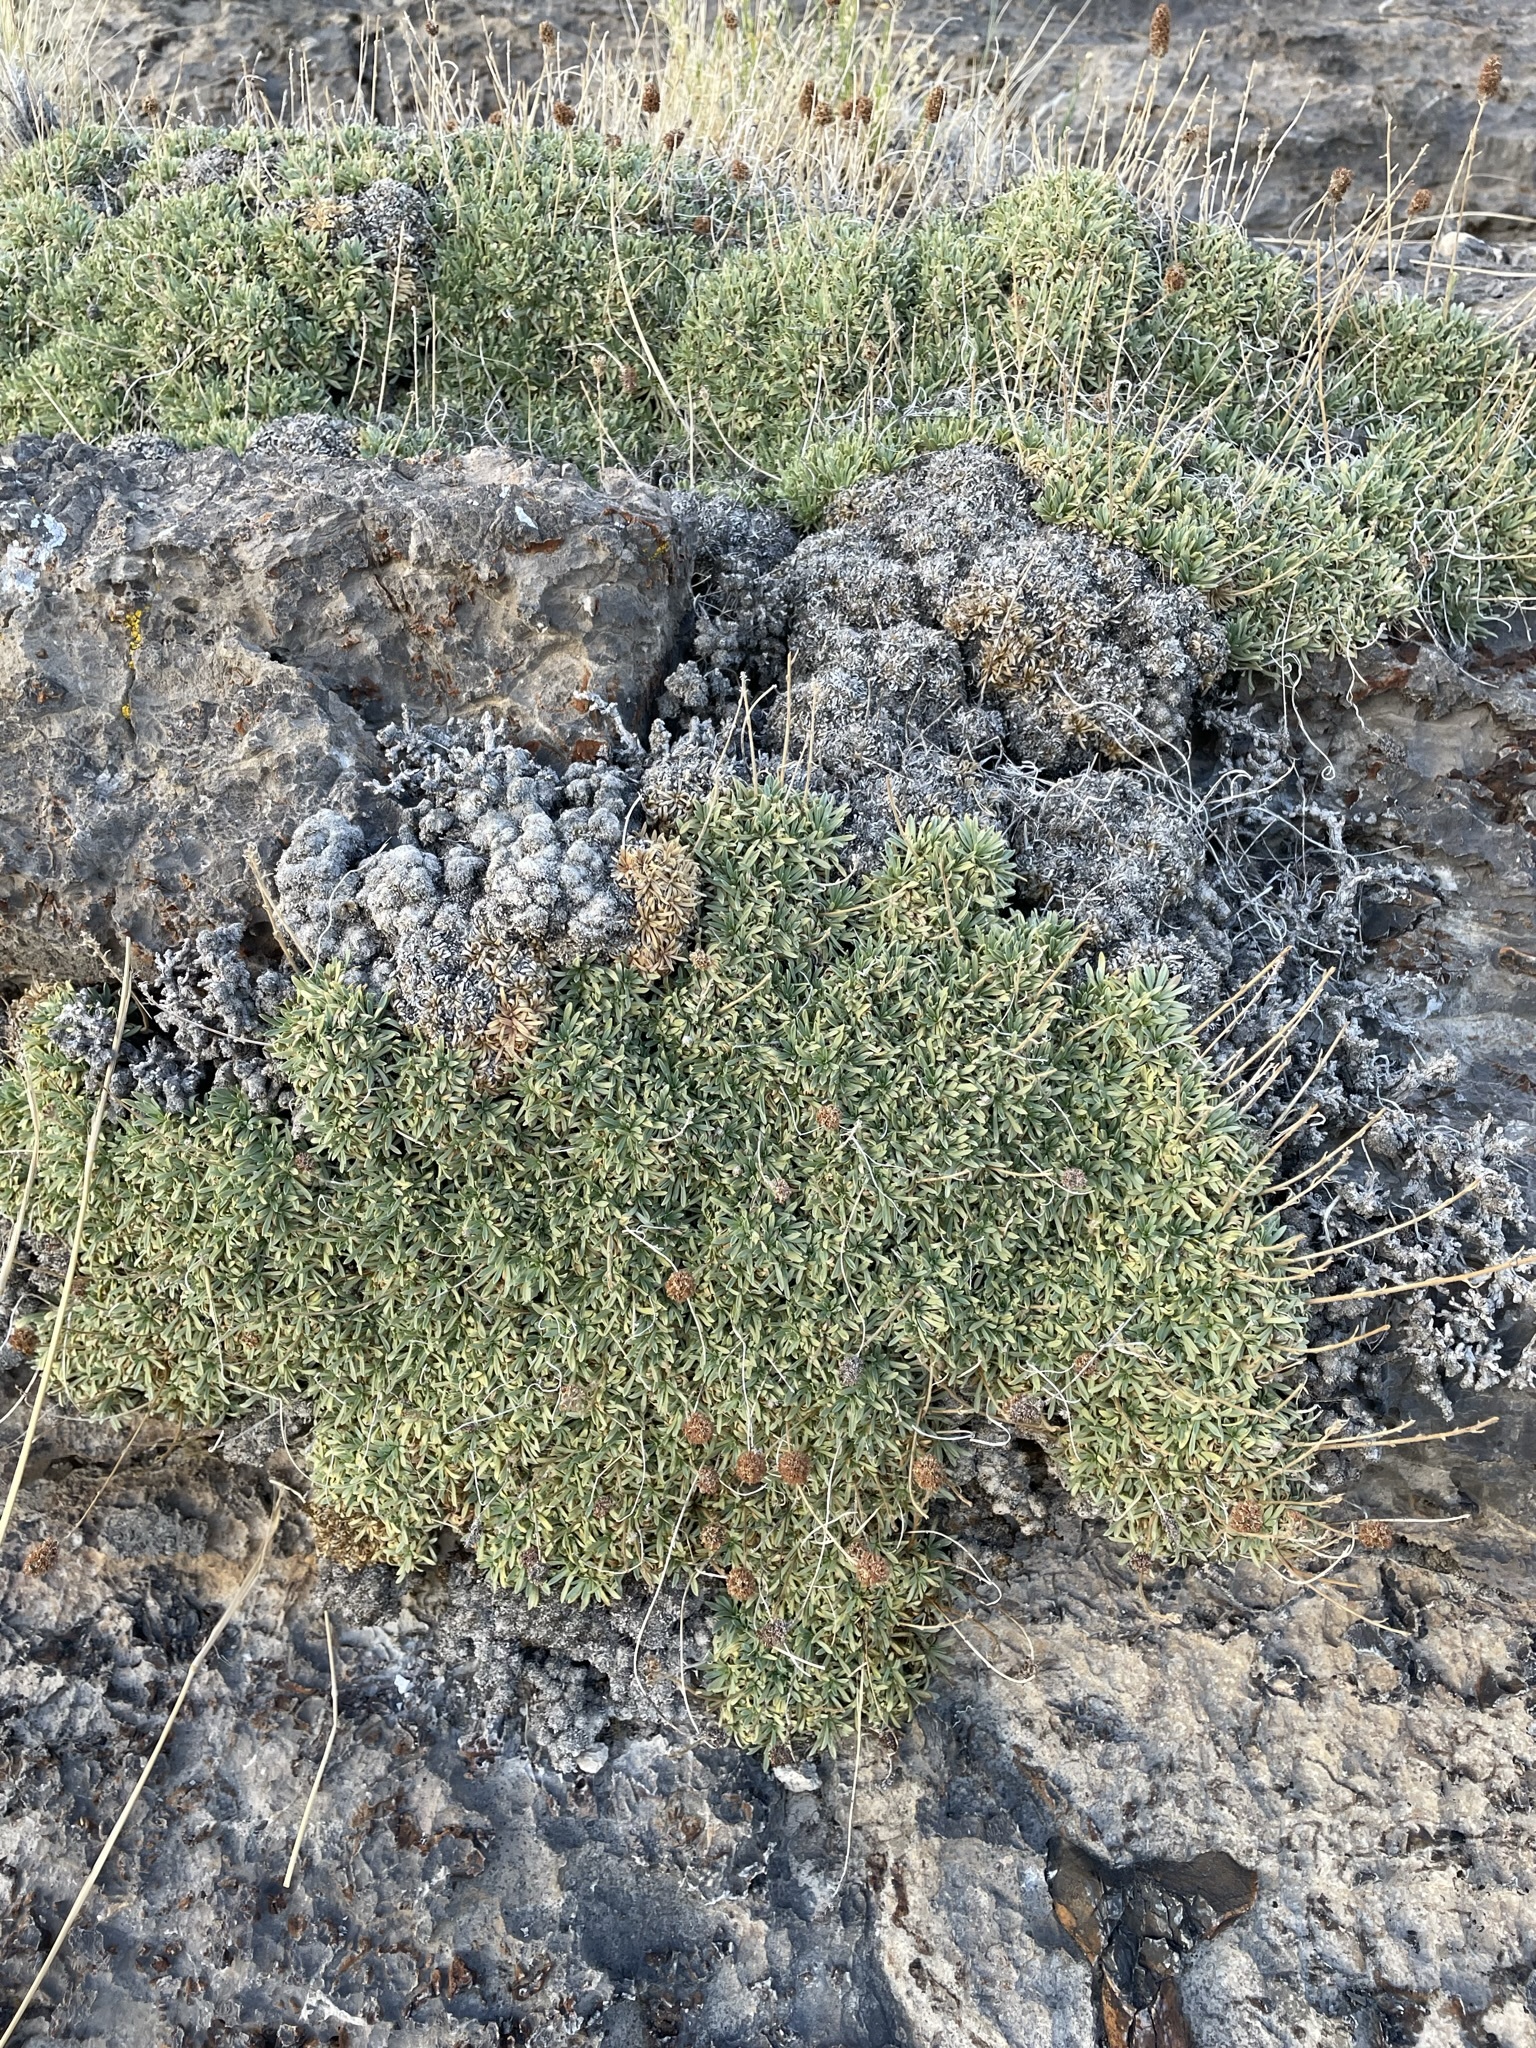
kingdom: Plantae
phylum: Tracheophyta
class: Magnoliopsida
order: Rosales
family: Rosaceae
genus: Petrophytum
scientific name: Petrophytum caespitosum
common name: Mat rockspirea
